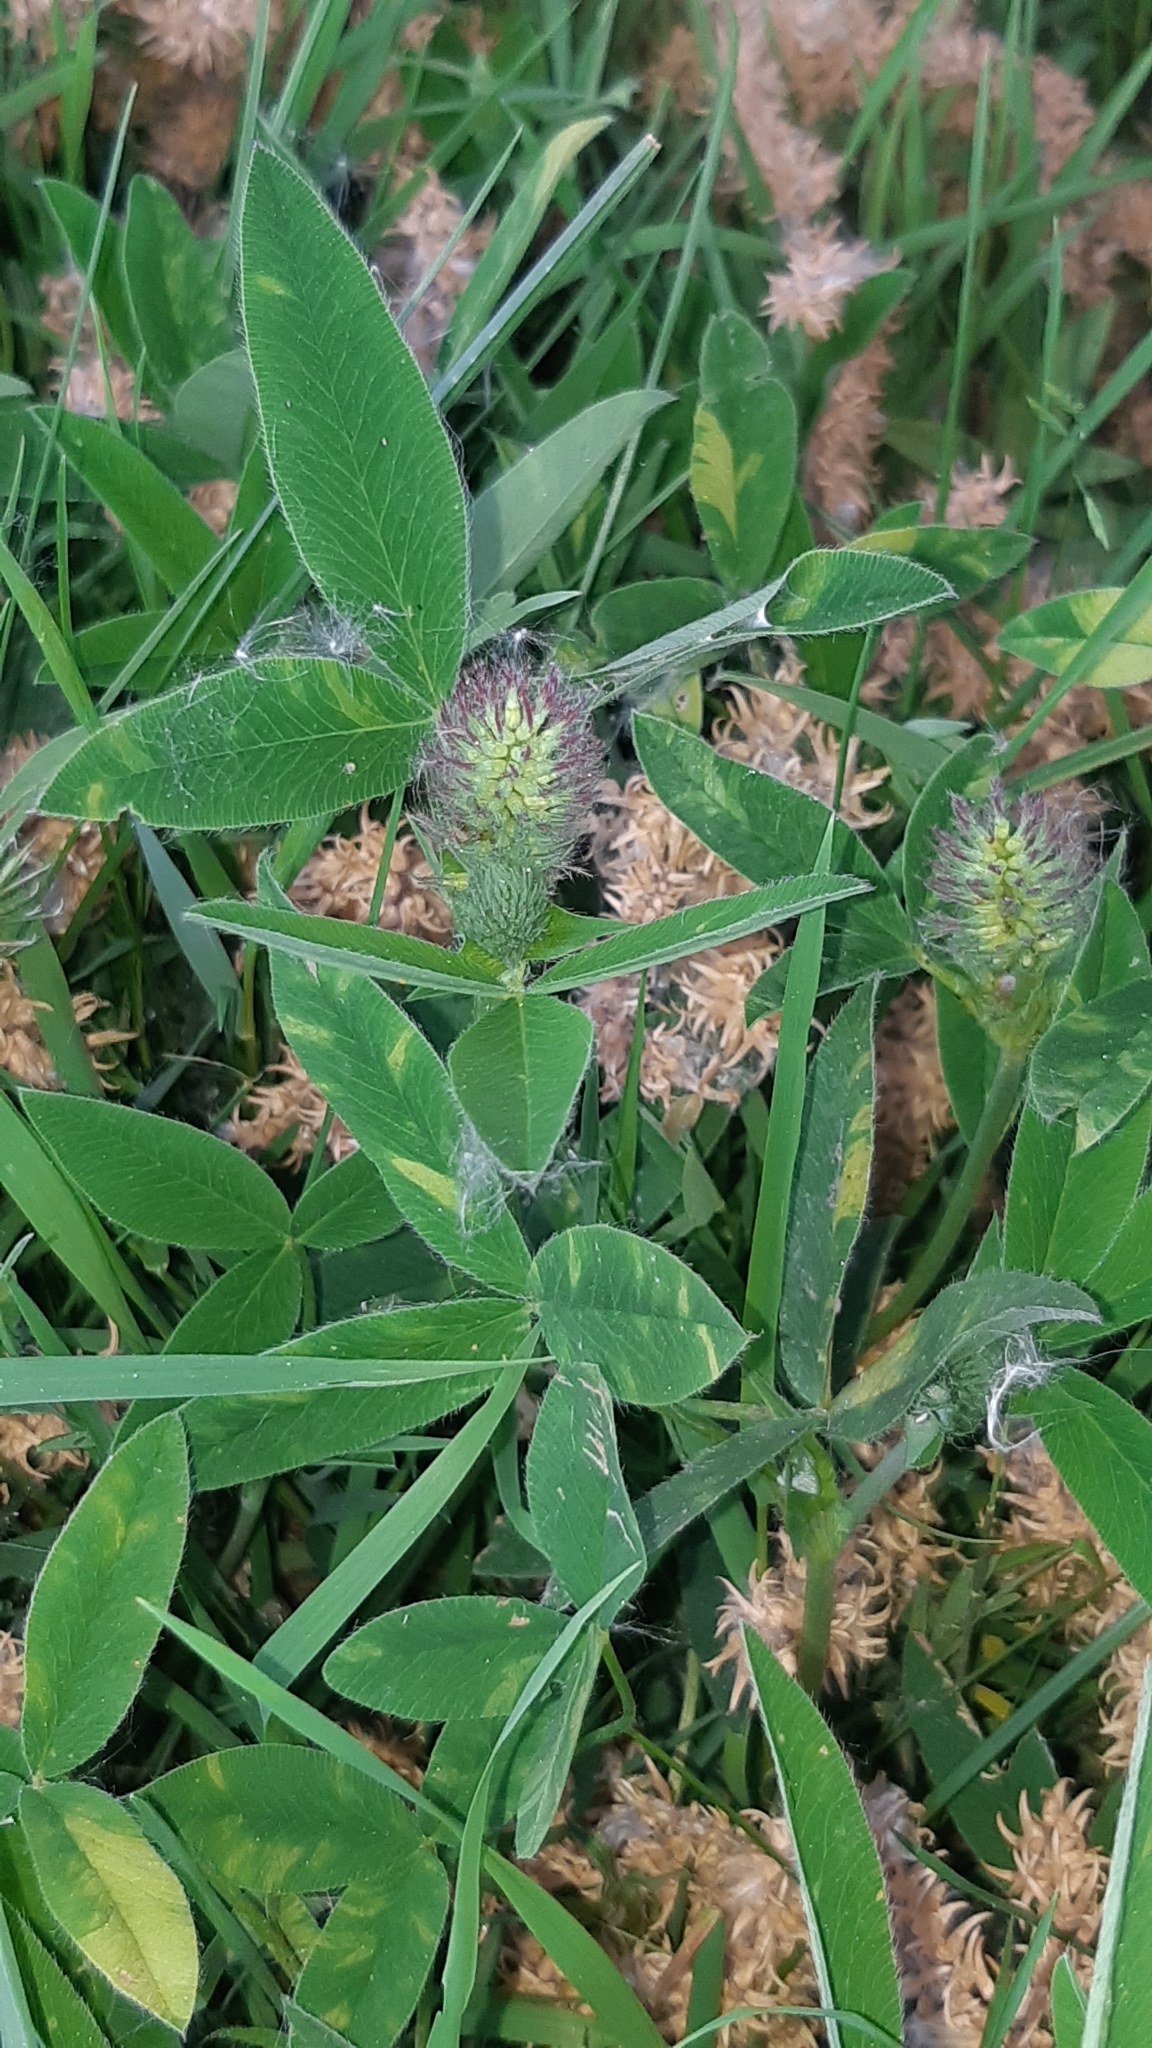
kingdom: Plantae
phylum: Tracheophyta
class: Magnoliopsida
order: Fabales
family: Fabaceae
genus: Trifolium
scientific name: Trifolium medium
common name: Zigzag clover
